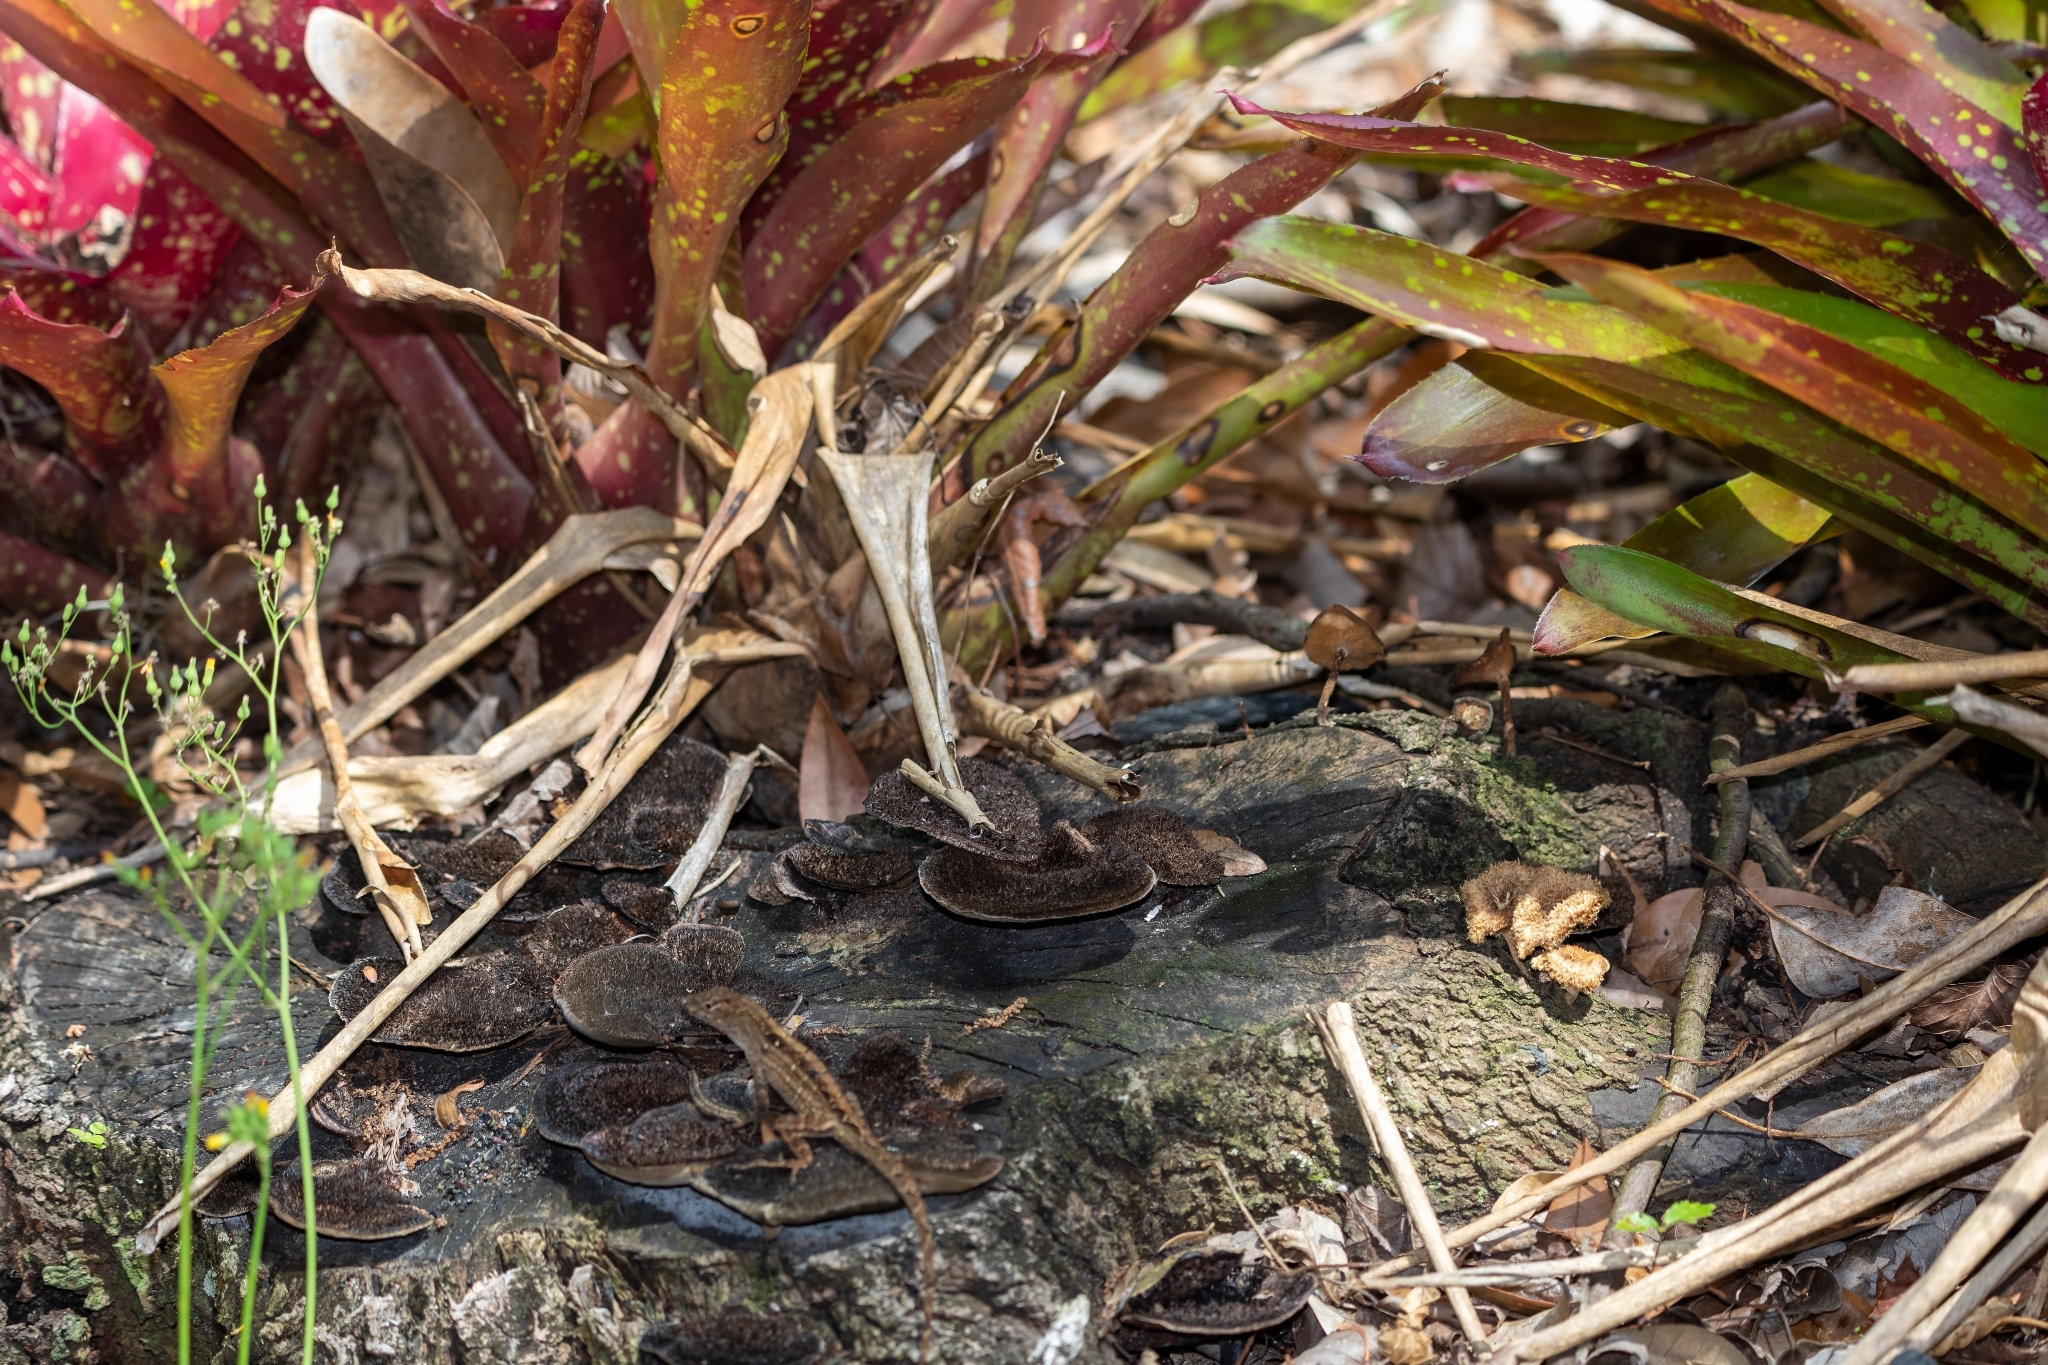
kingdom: Fungi
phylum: Basidiomycota
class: Agaricomycetes
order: Polyporales
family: Cerrenaceae
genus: Cerrena
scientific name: Cerrena hydnoides
